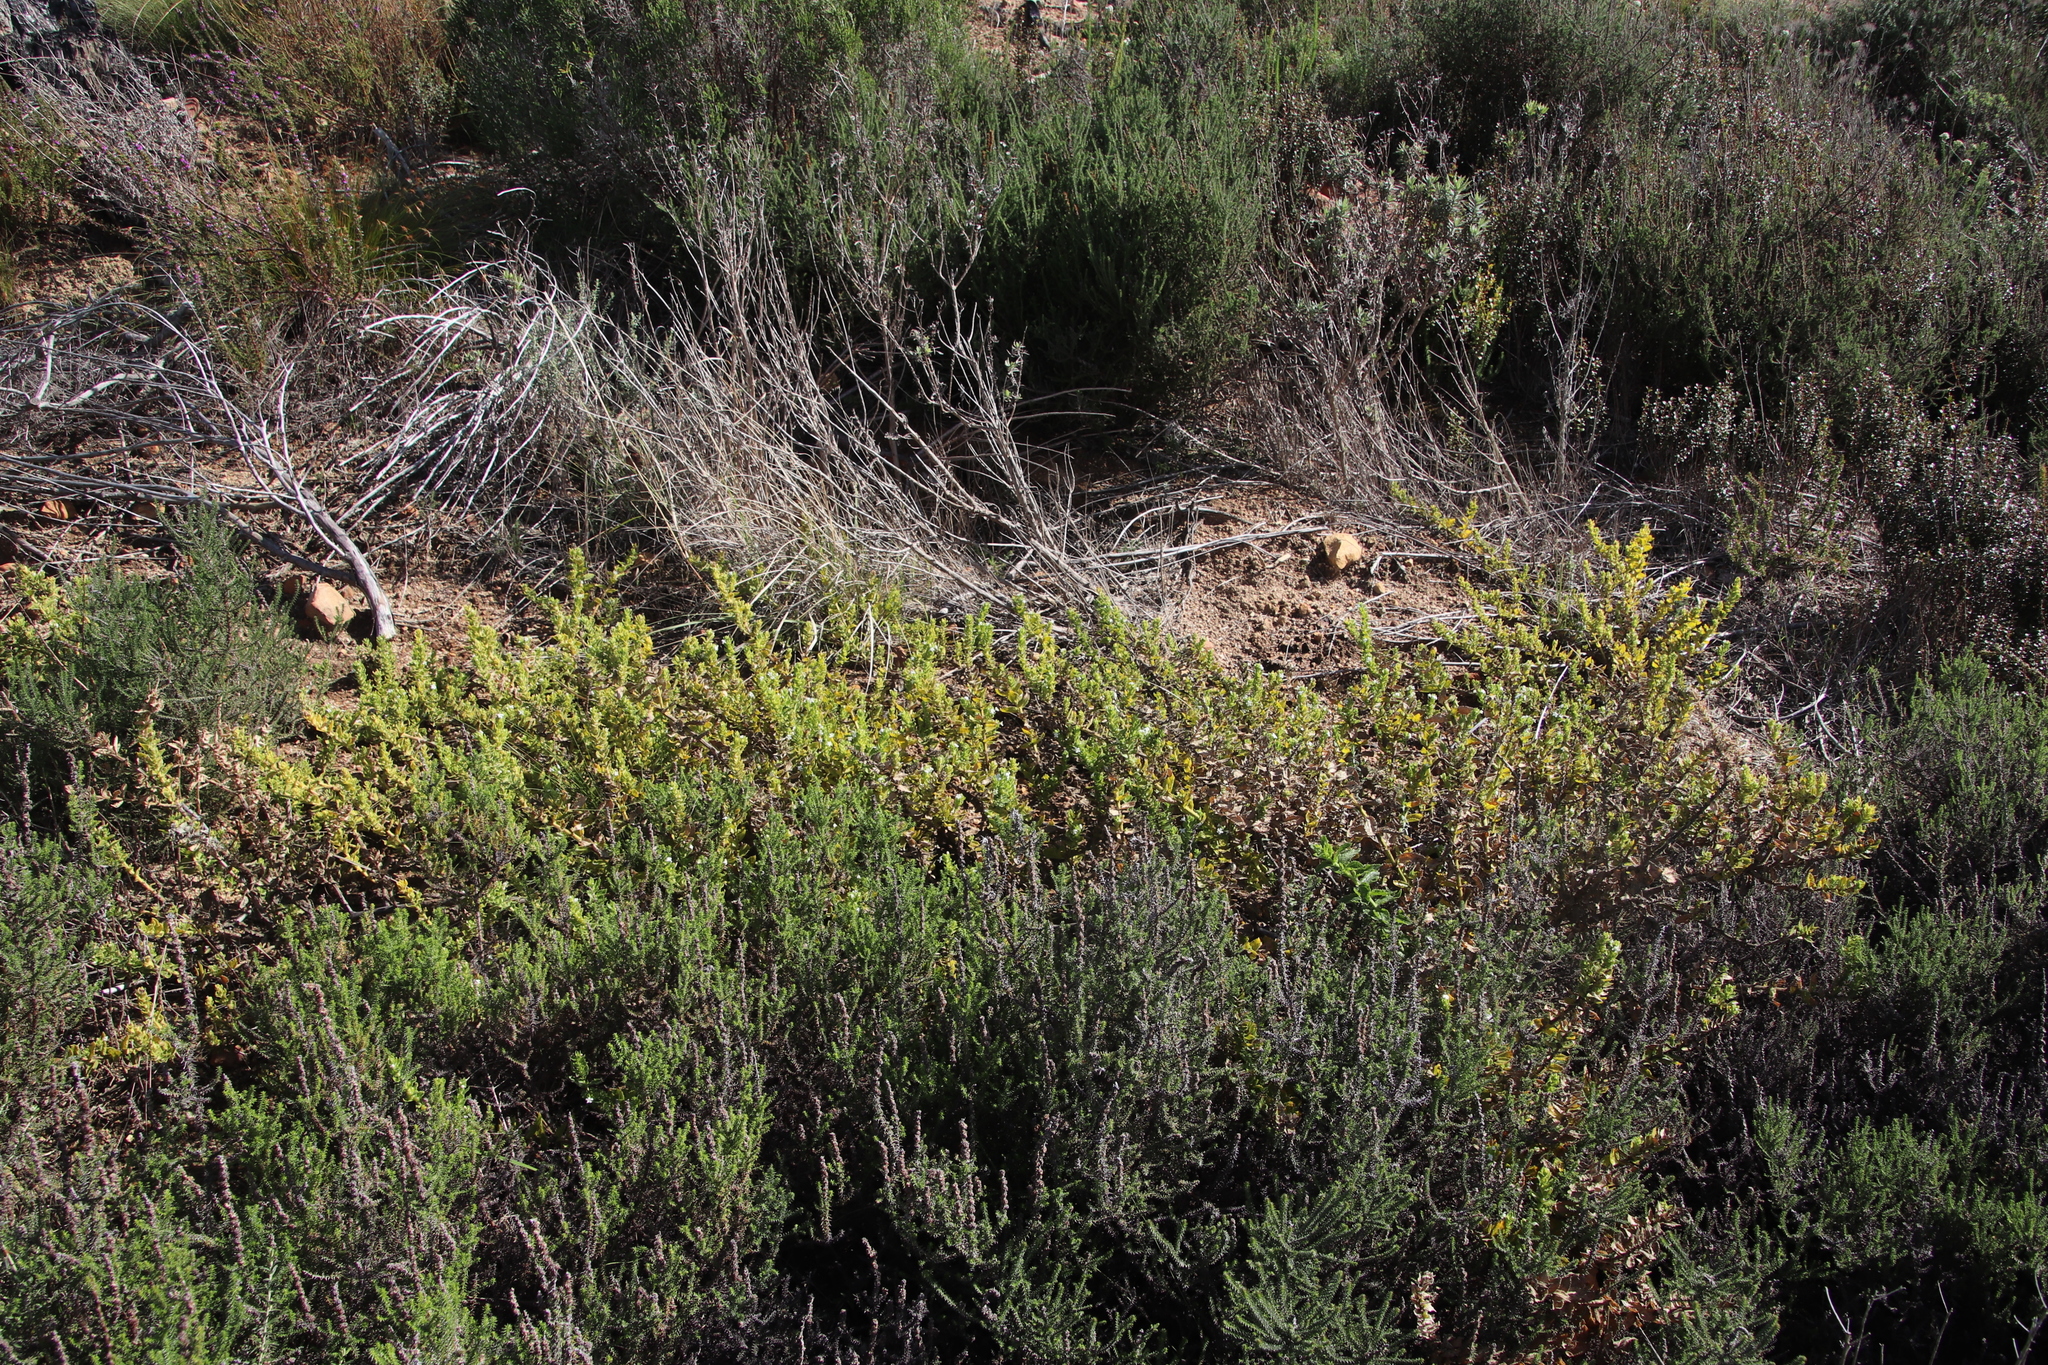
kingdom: Plantae
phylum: Tracheophyta
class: Magnoliopsida
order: Lamiales
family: Scrophulariaceae
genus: Oftia
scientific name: Oftia africana
